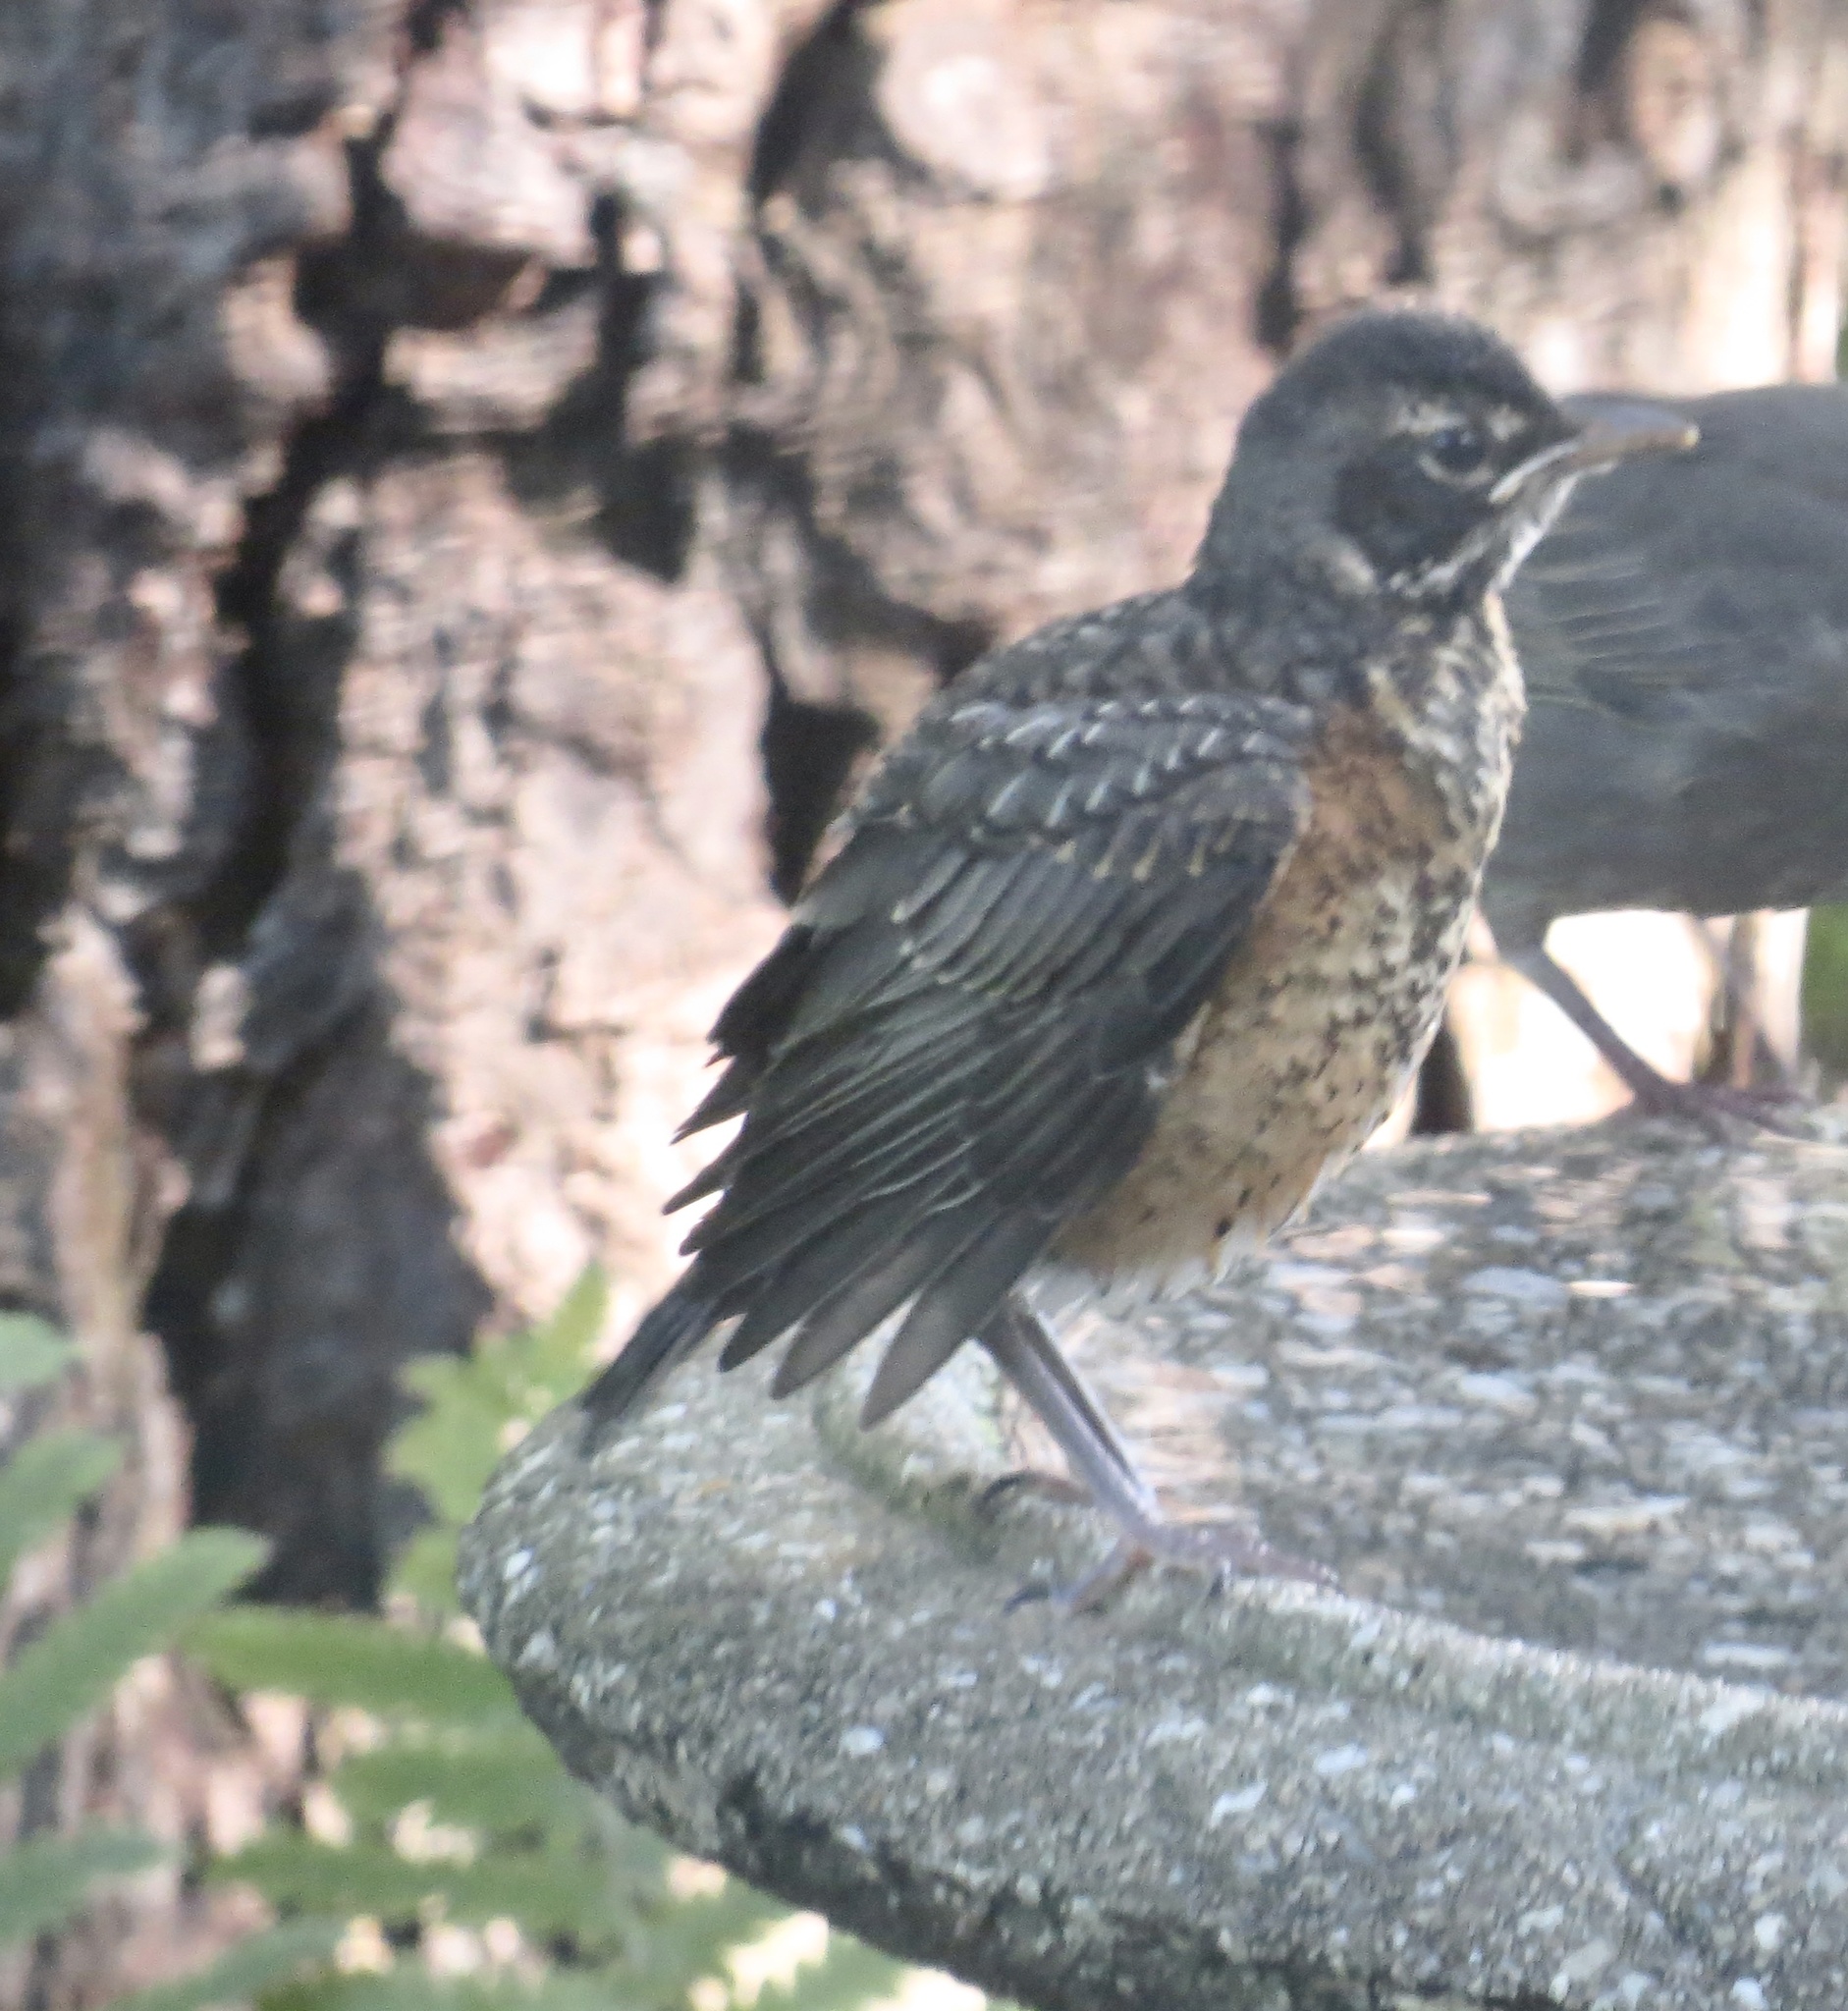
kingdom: Animalia
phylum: Chordata
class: Aves
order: Passeriformes
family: Turdidae
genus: Turdus
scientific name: Turdus migratorius
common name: American robin
